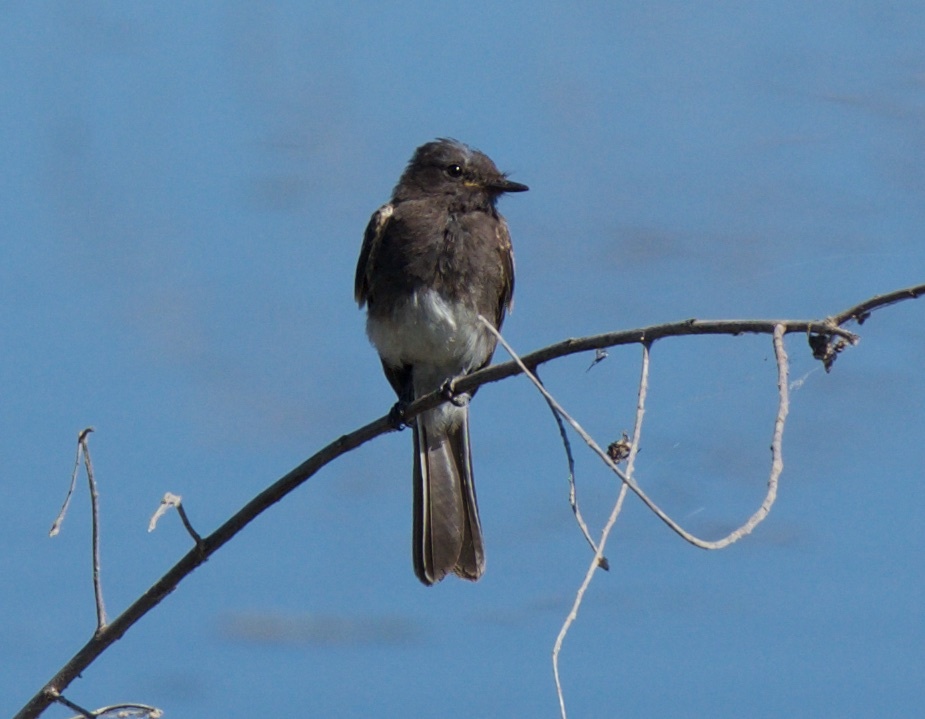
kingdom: Animalia
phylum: Chordata
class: Aves
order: Passeriformes
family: Tyrannidae
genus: Sayornis
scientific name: Sayornis nigricans
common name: Black phoebe
